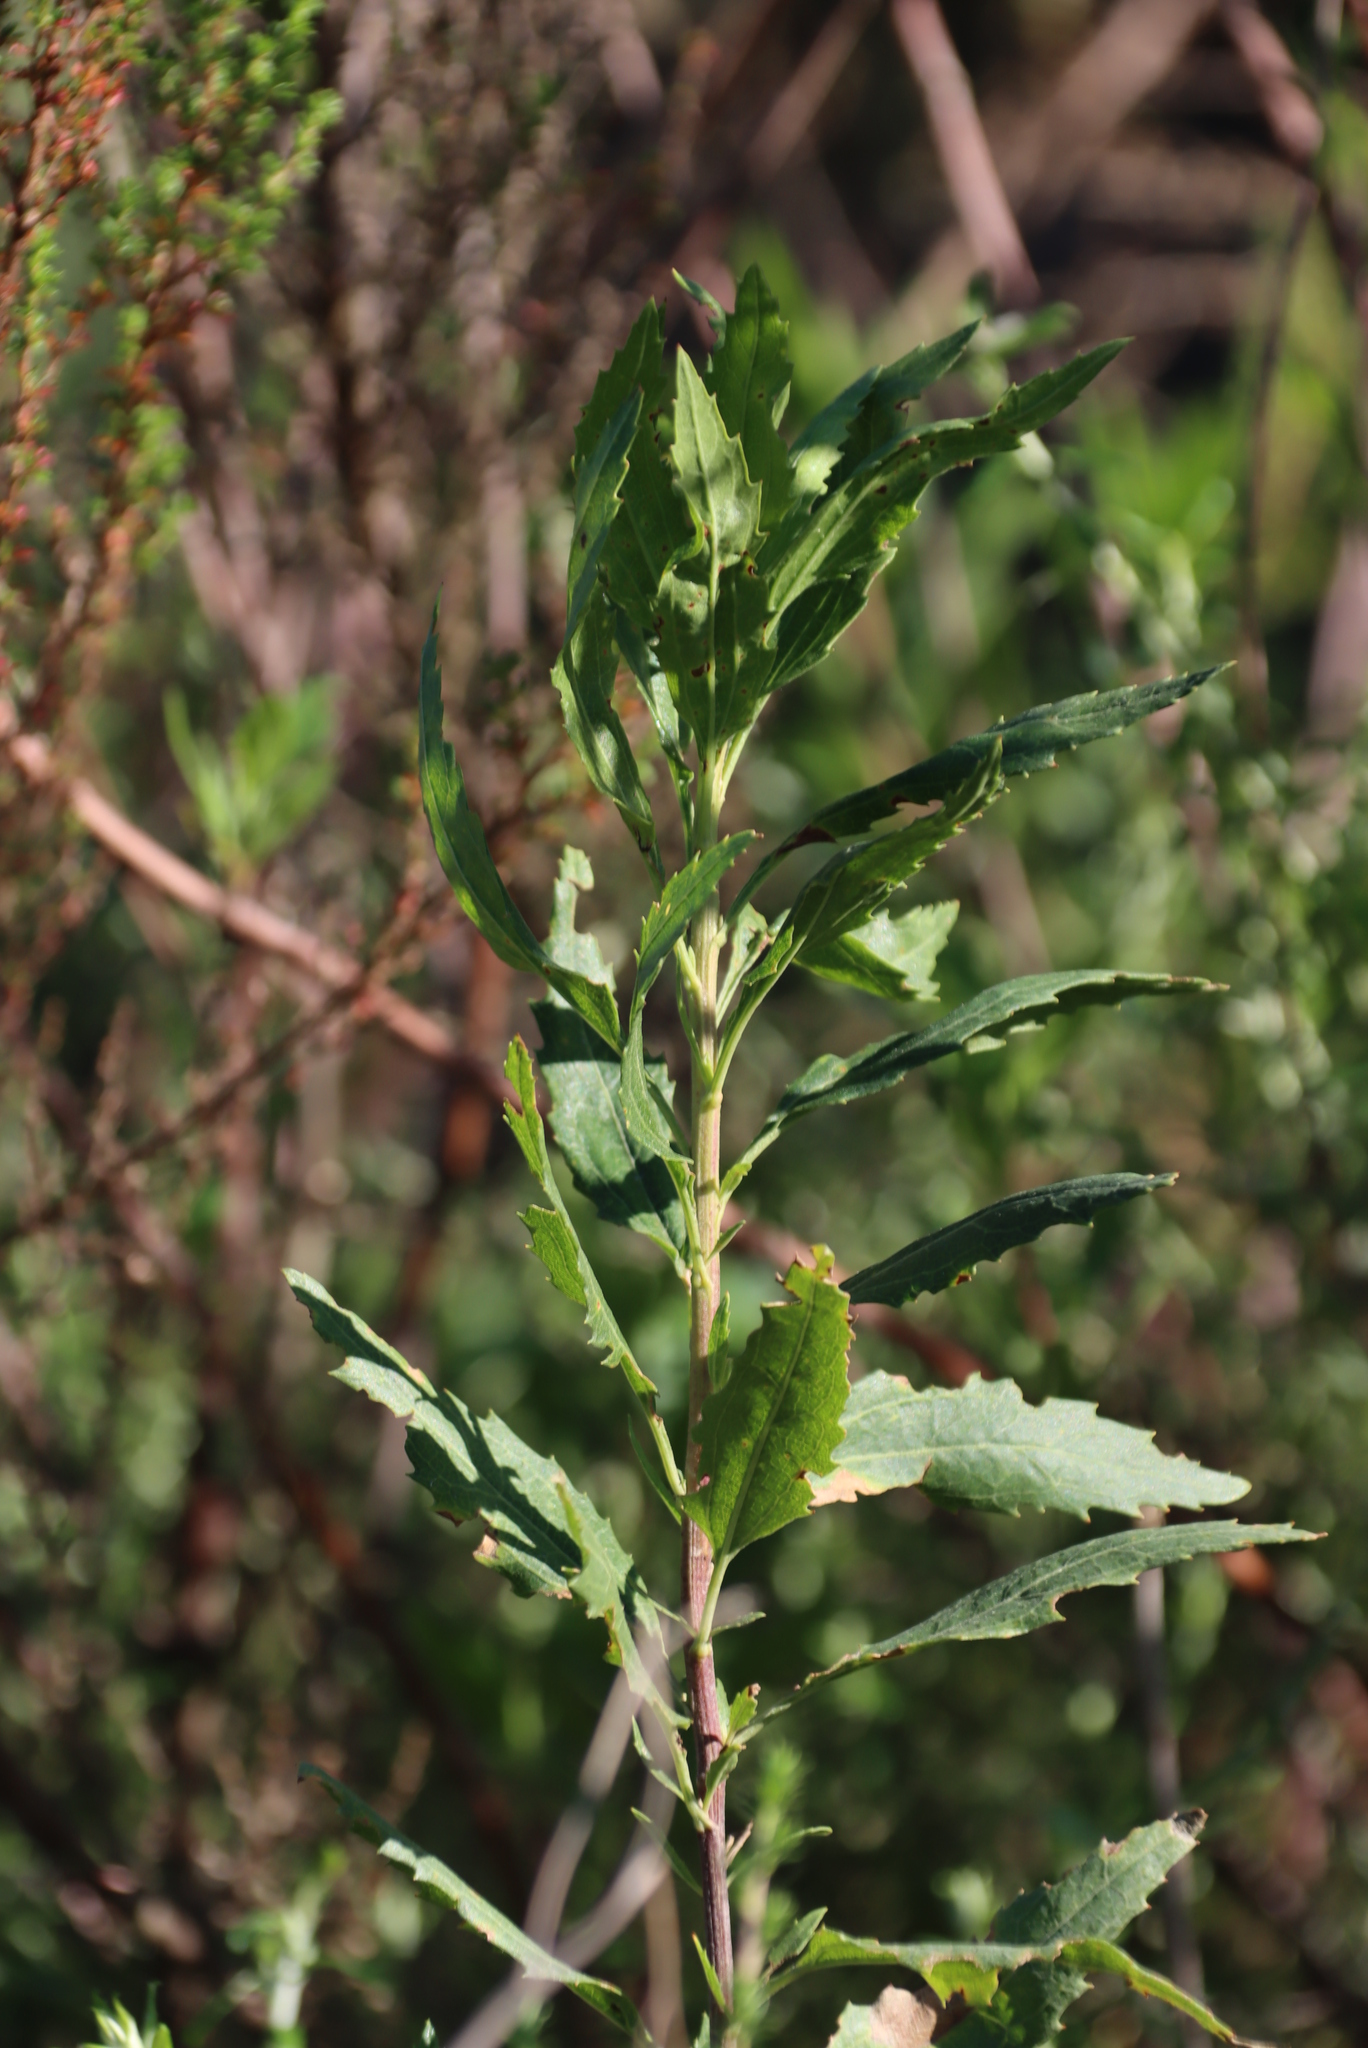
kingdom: Plantae
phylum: Tracheophyta
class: Magnoliopsida
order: Asterales
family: Asteraceae
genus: Nidorella
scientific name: Nidorella ivifolia
